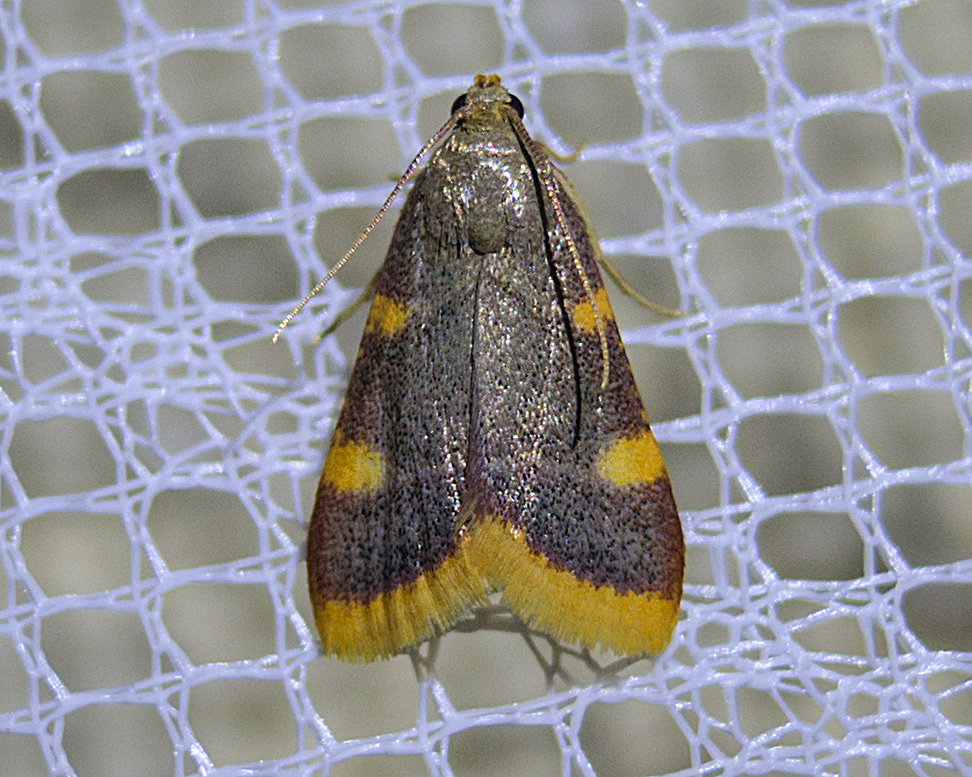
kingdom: Animalia
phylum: Arthropoda
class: Insecta
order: Lepidoptera
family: Pyralidae
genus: Hypsopygia
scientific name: Hypsopygia costalis
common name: Gold triangle
